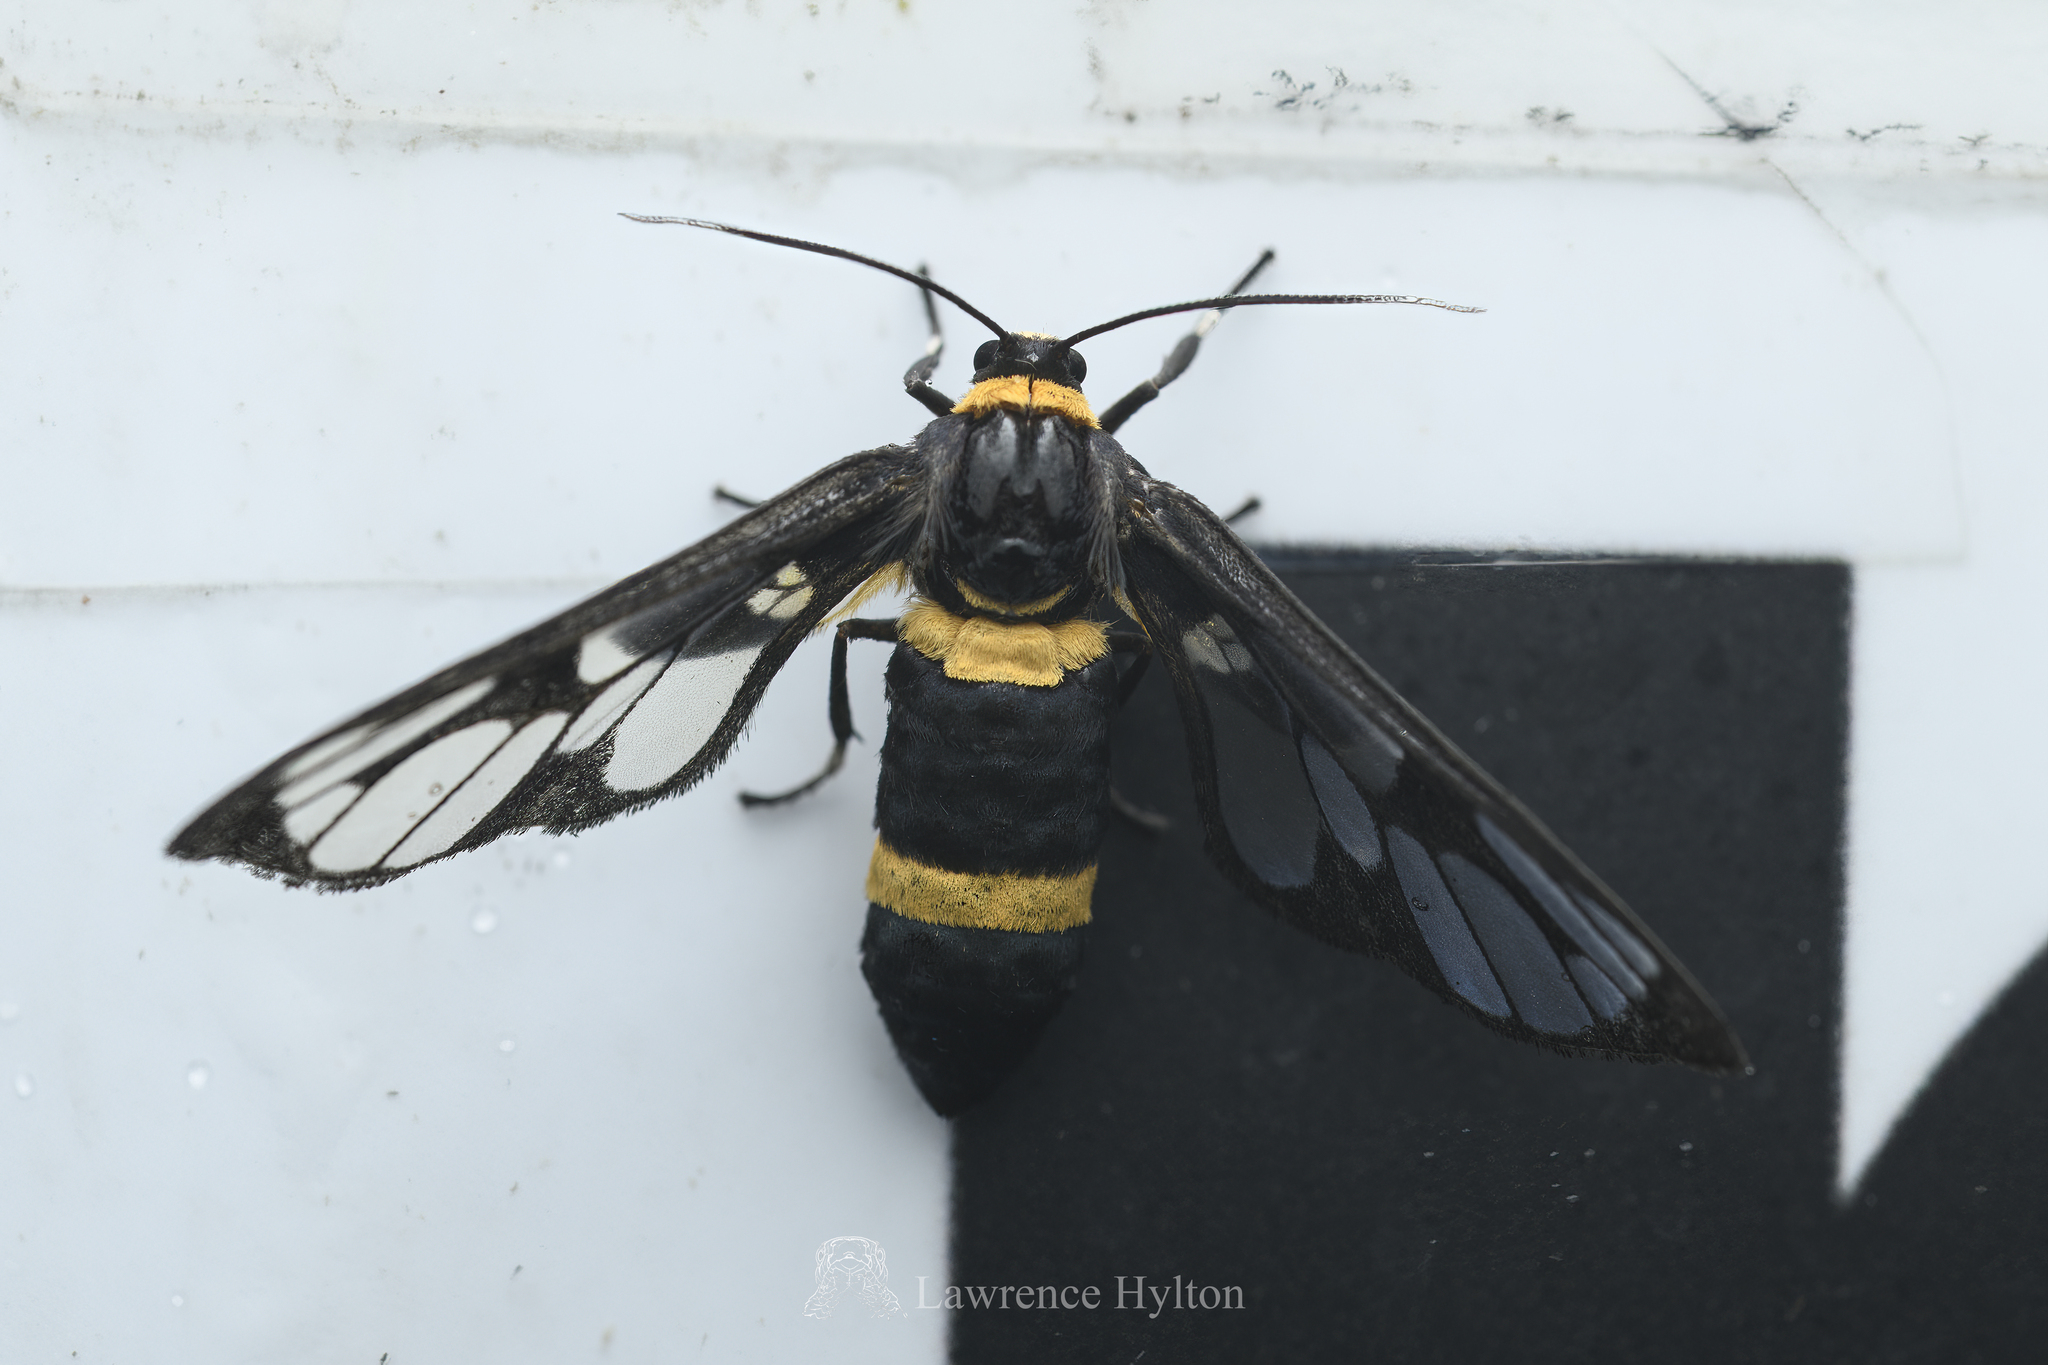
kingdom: Animalia
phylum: Arthropoda
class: Insecta
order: Lepidoptera
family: Erebidae
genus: Syntomoides
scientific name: Syntomoides imaon
